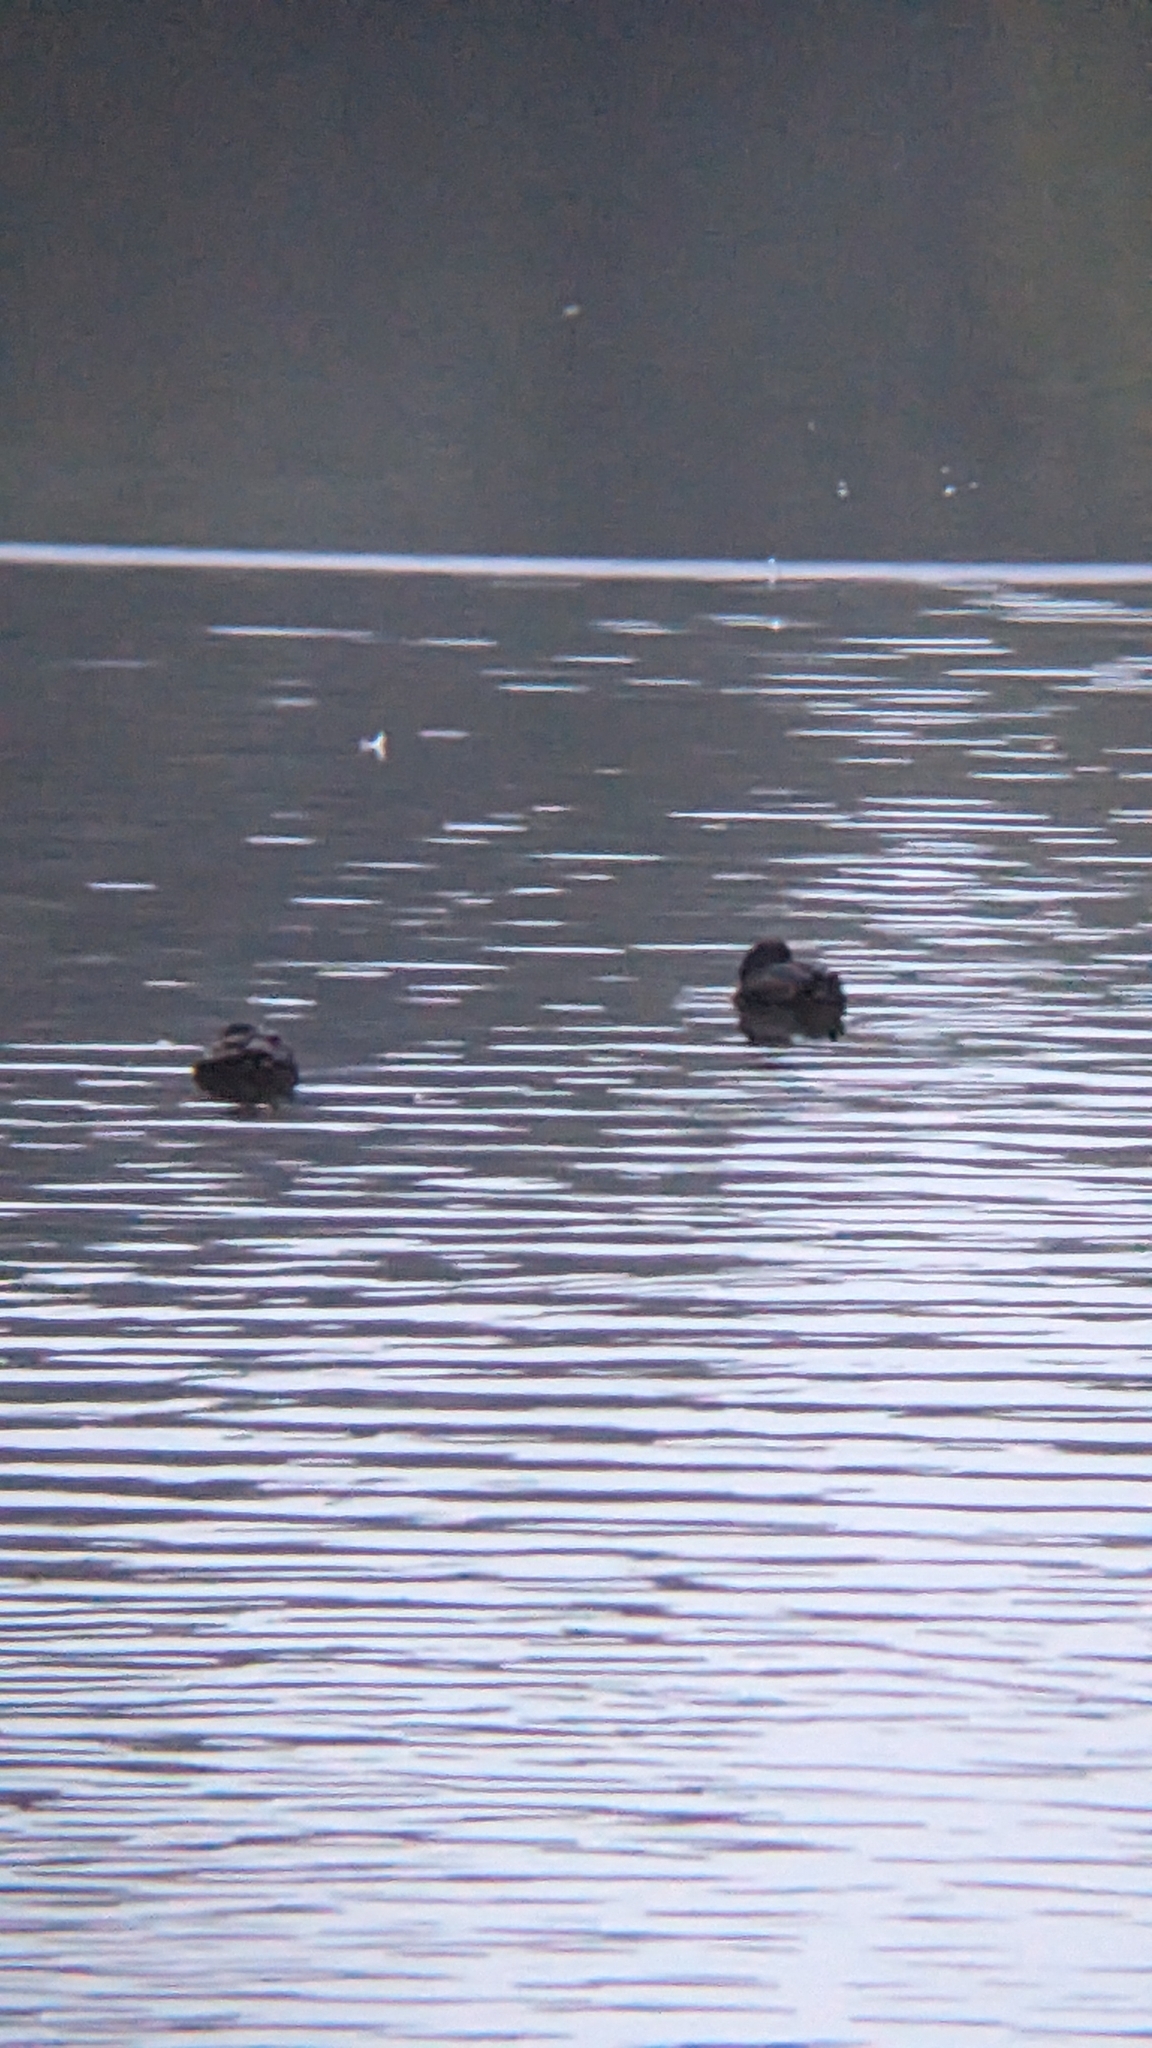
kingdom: Animalia
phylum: Chordata
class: Aves
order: Anseriformes
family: Anatidae
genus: Aythya
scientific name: Aythya novaeseelandiae
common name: New zealand scaup
